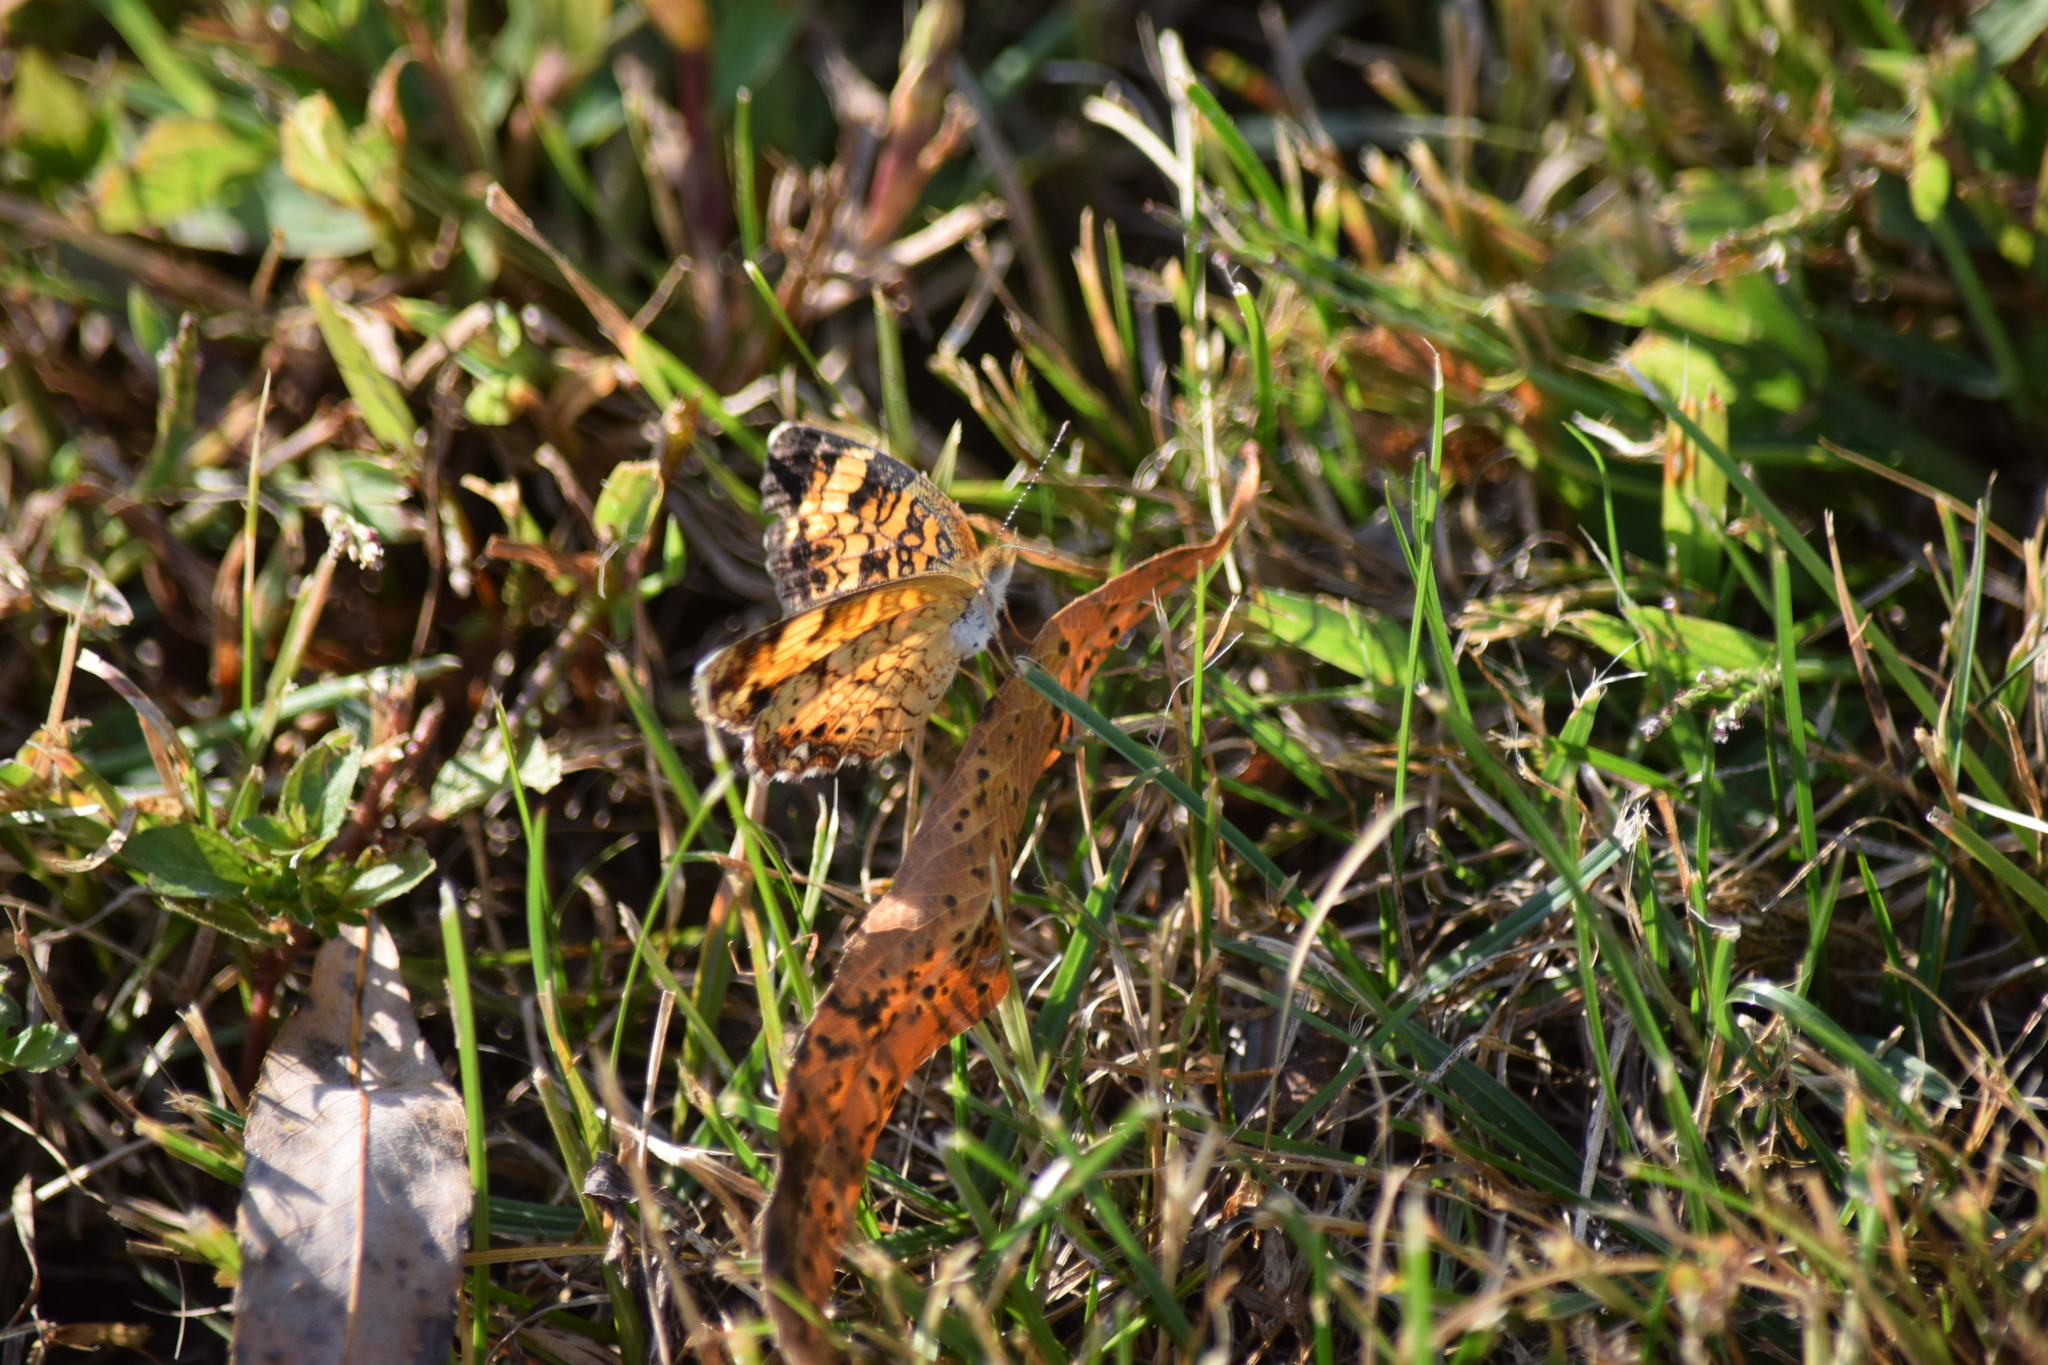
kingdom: Animalia
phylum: Arthropoda
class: Insecta
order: Lepidoptera
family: Nymphalidae
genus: Phyciodes
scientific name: Phyciodes tharos
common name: Pearl crescent
